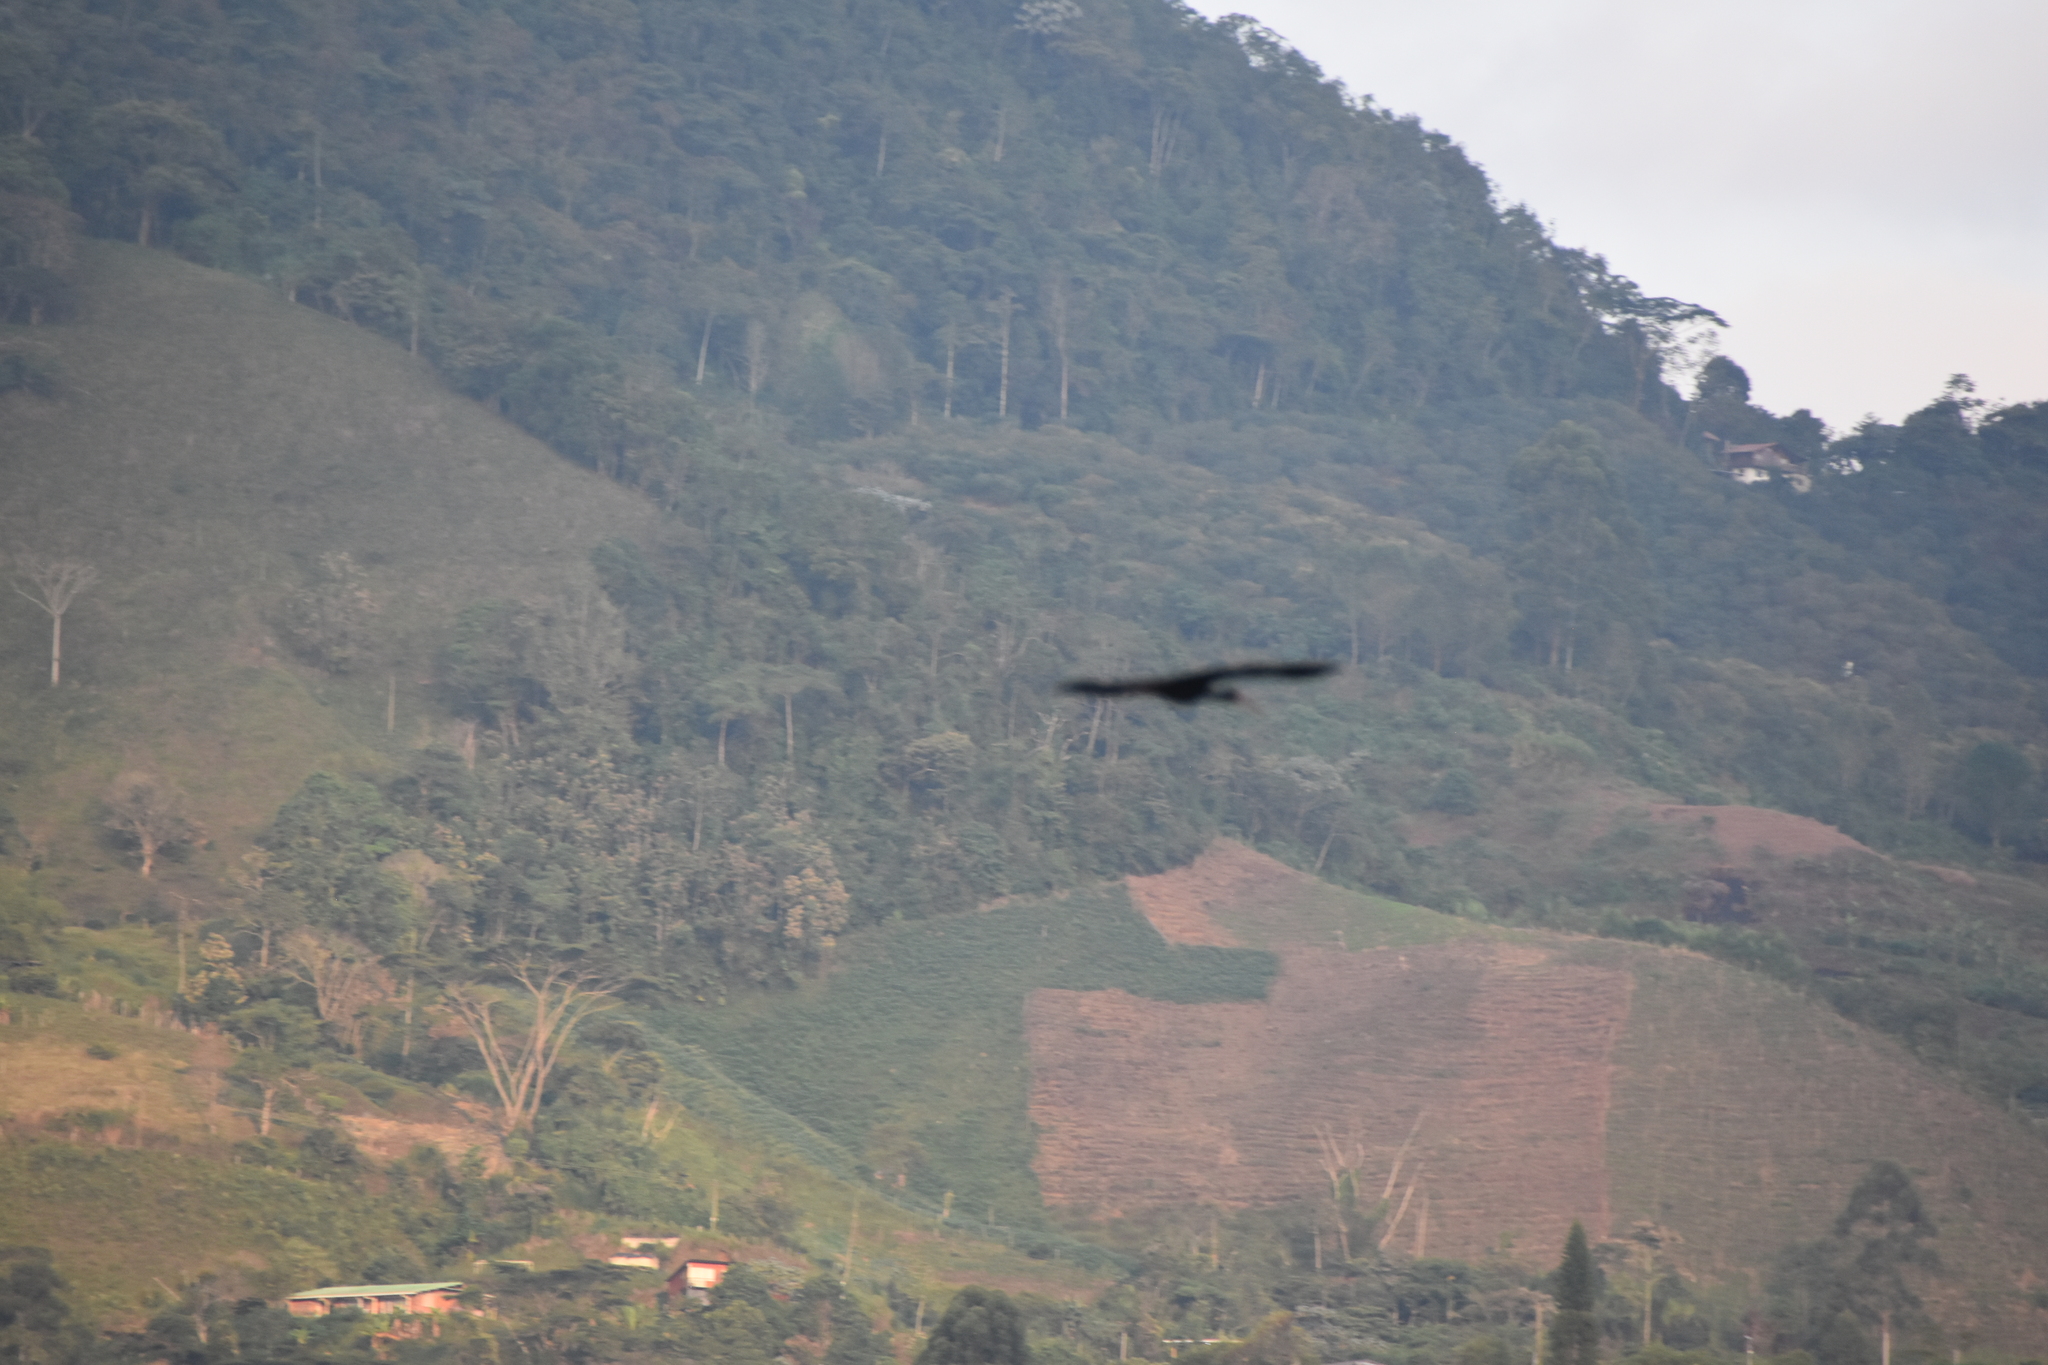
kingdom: Animalia
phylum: Chordata
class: Aves
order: Pelecaniformes
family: Threskiornithidae
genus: Phimosus
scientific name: Phimosus infuscatus
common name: Bare-faced ibis
